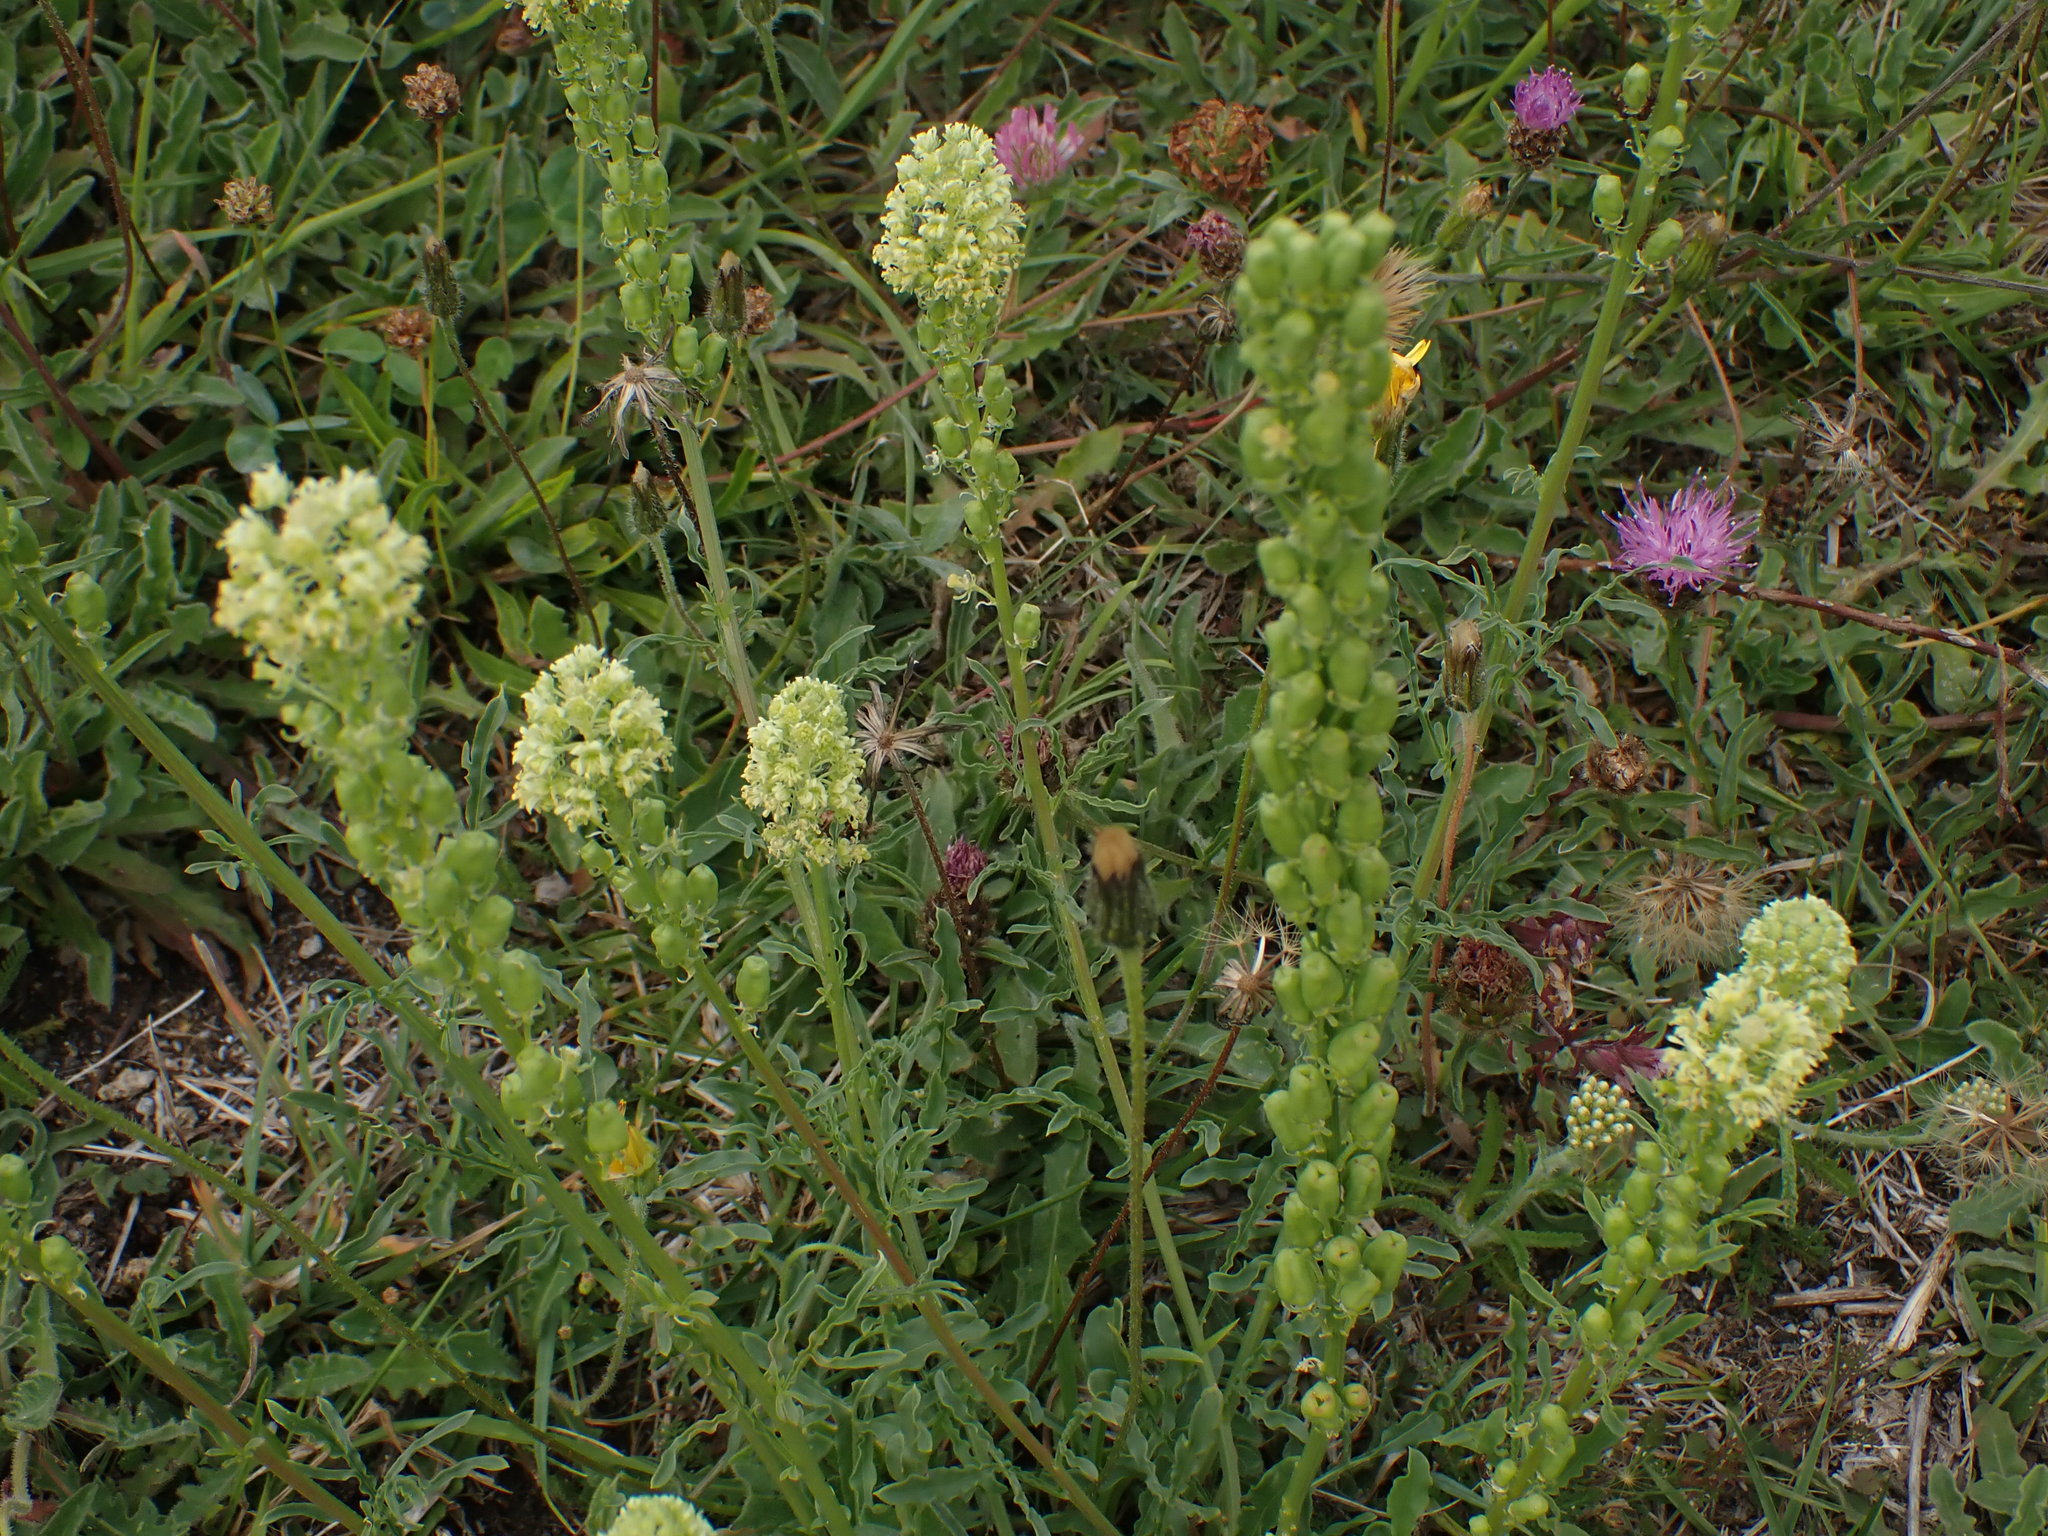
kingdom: Plantae
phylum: Tracheophyta
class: Magnoliopsida
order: Brassicales
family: Resedaceae
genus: Reseda
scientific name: Reseda lutea
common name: Wild mignonette
